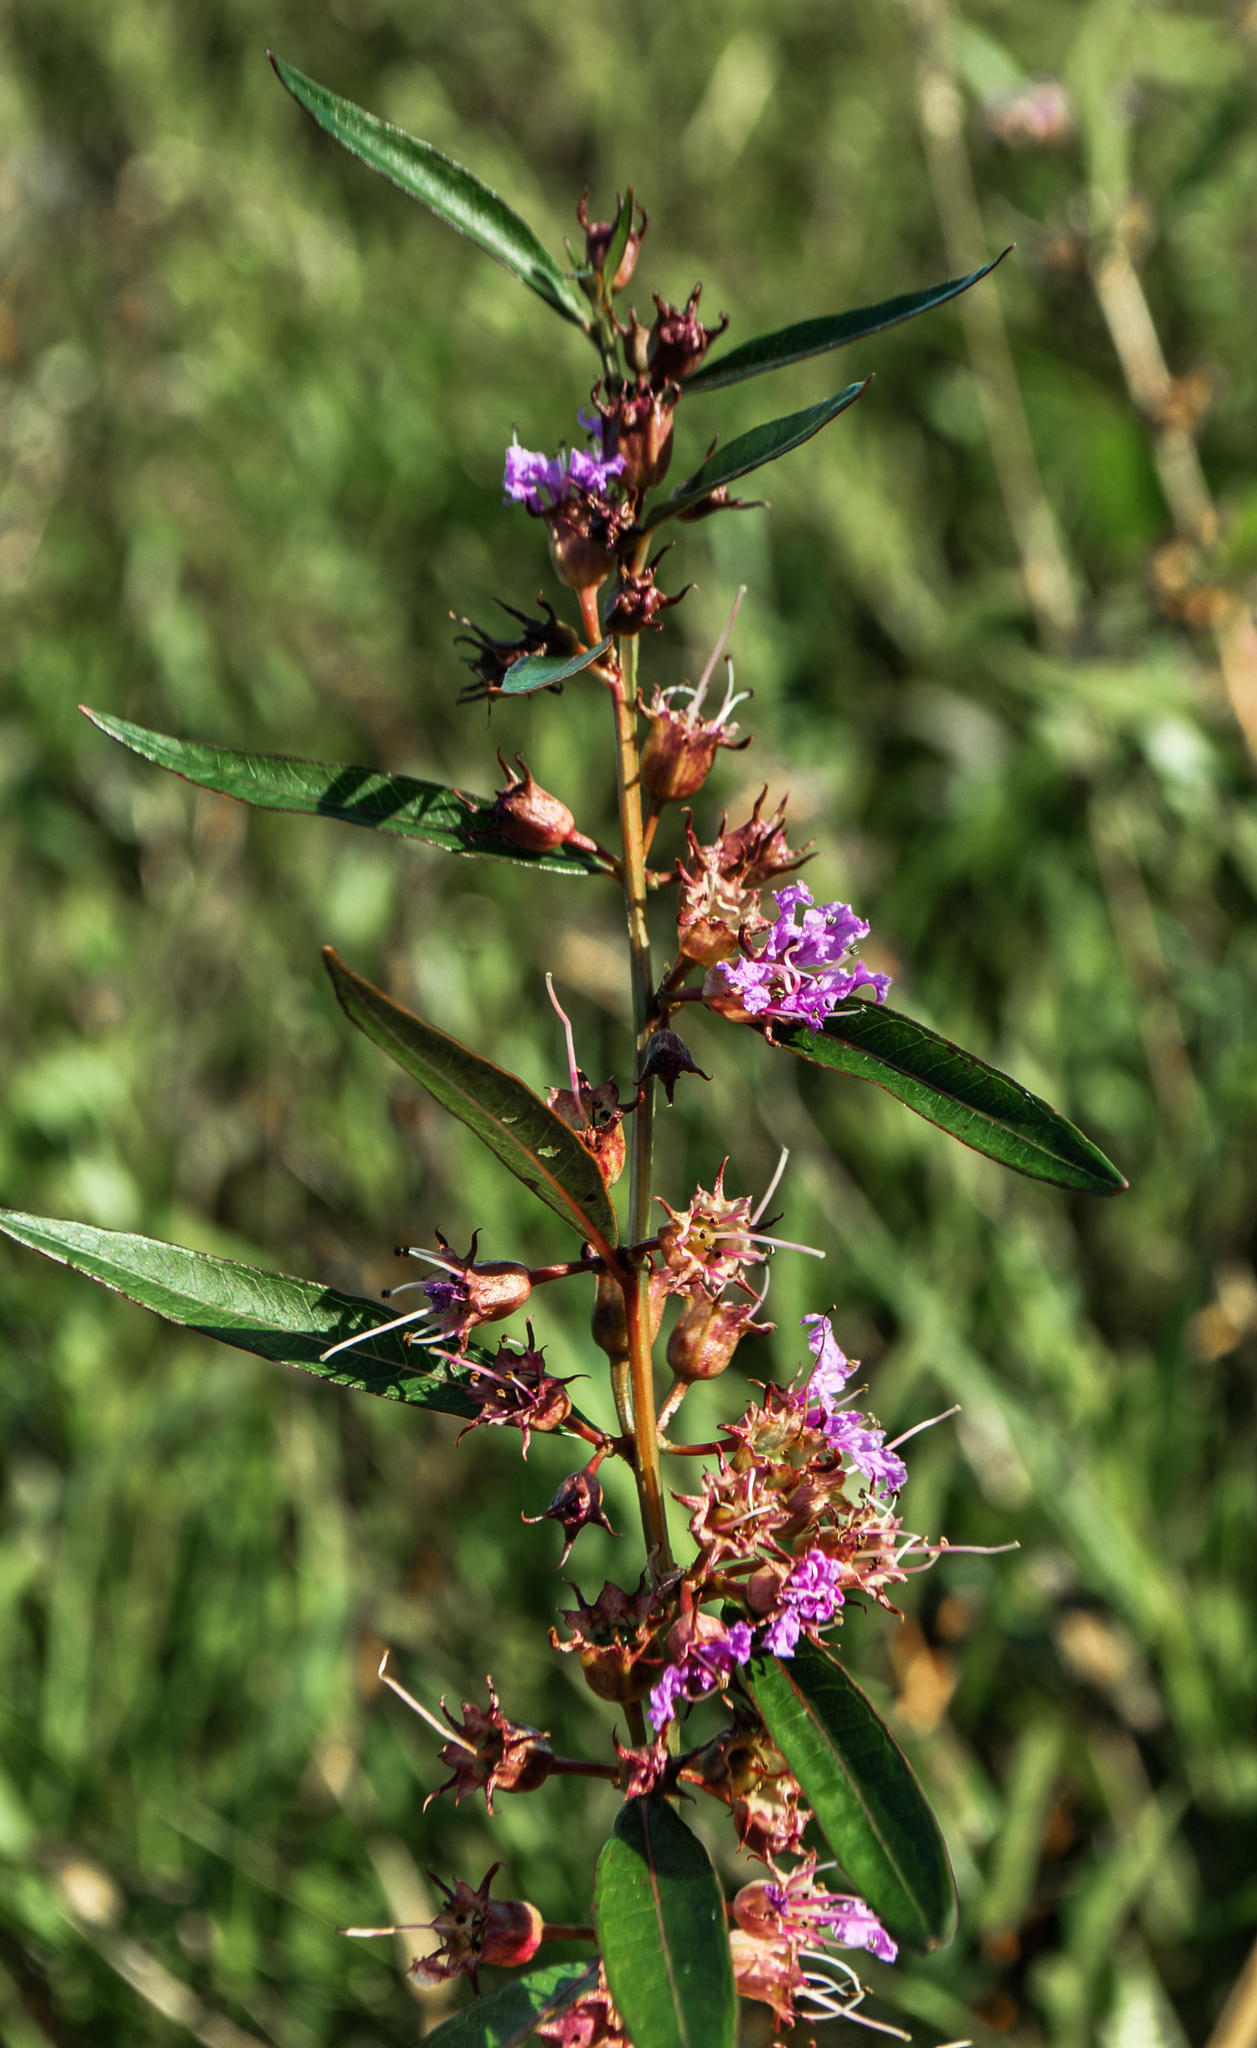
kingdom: Plantae
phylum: Tracheophyta
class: Magnoliopsida
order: Myrtales
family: Lythraceae
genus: Decodon
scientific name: Decodon verticillatus
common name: Hairy swamp loosestrife
